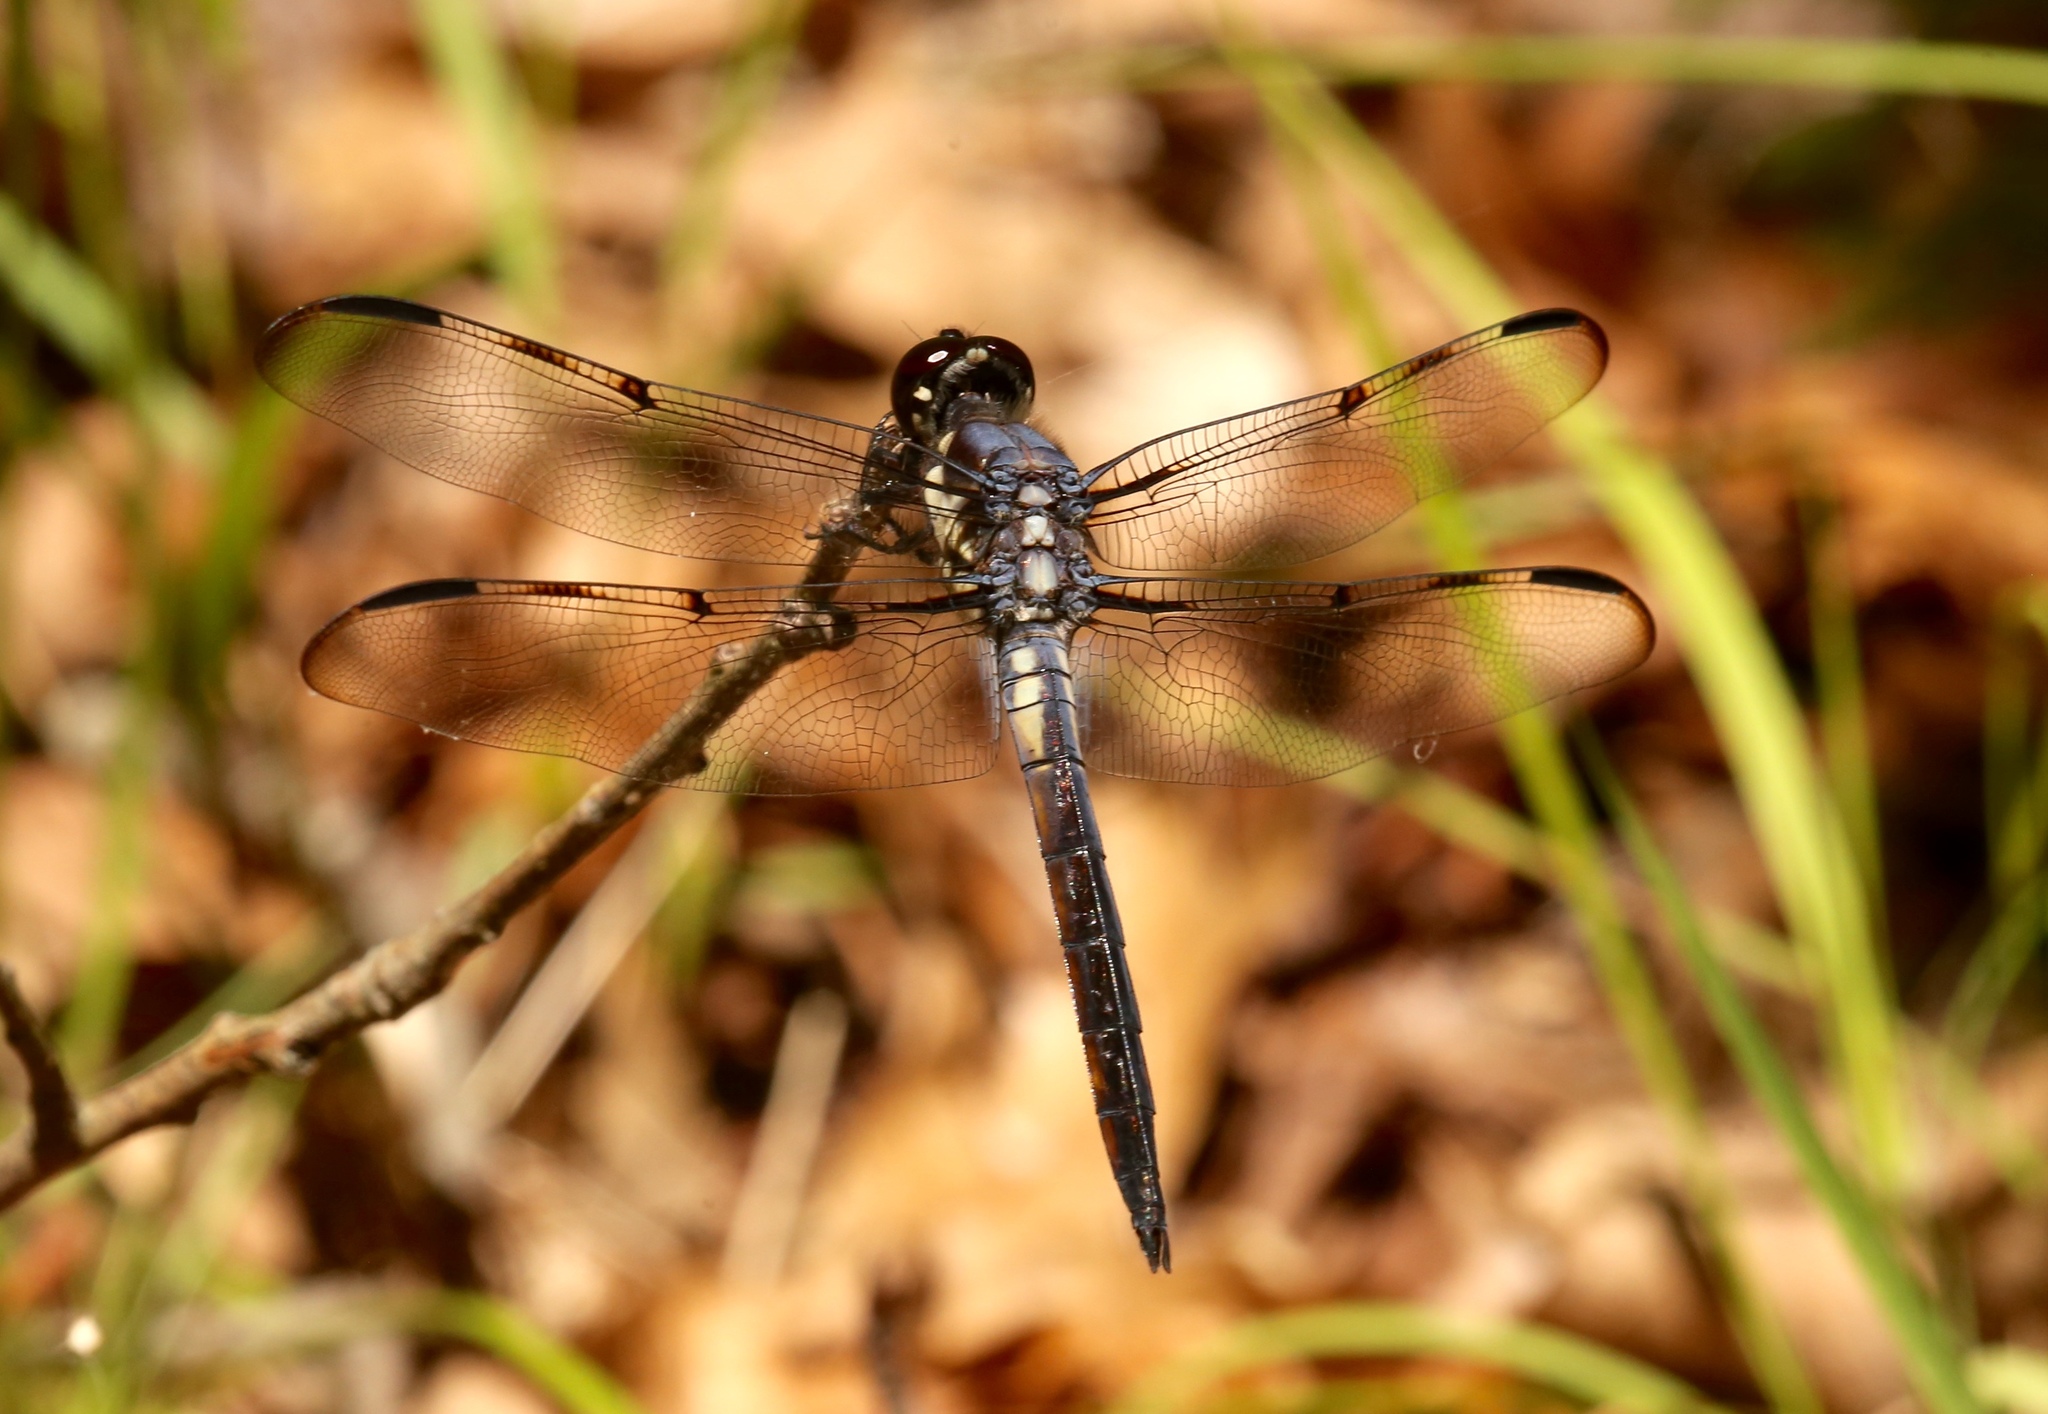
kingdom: Animalia
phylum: Arthropoda
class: Insecta
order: Odonata
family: Libellulidae
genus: Libellula
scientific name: Libellula axilena
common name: Bar-winged skimmer
